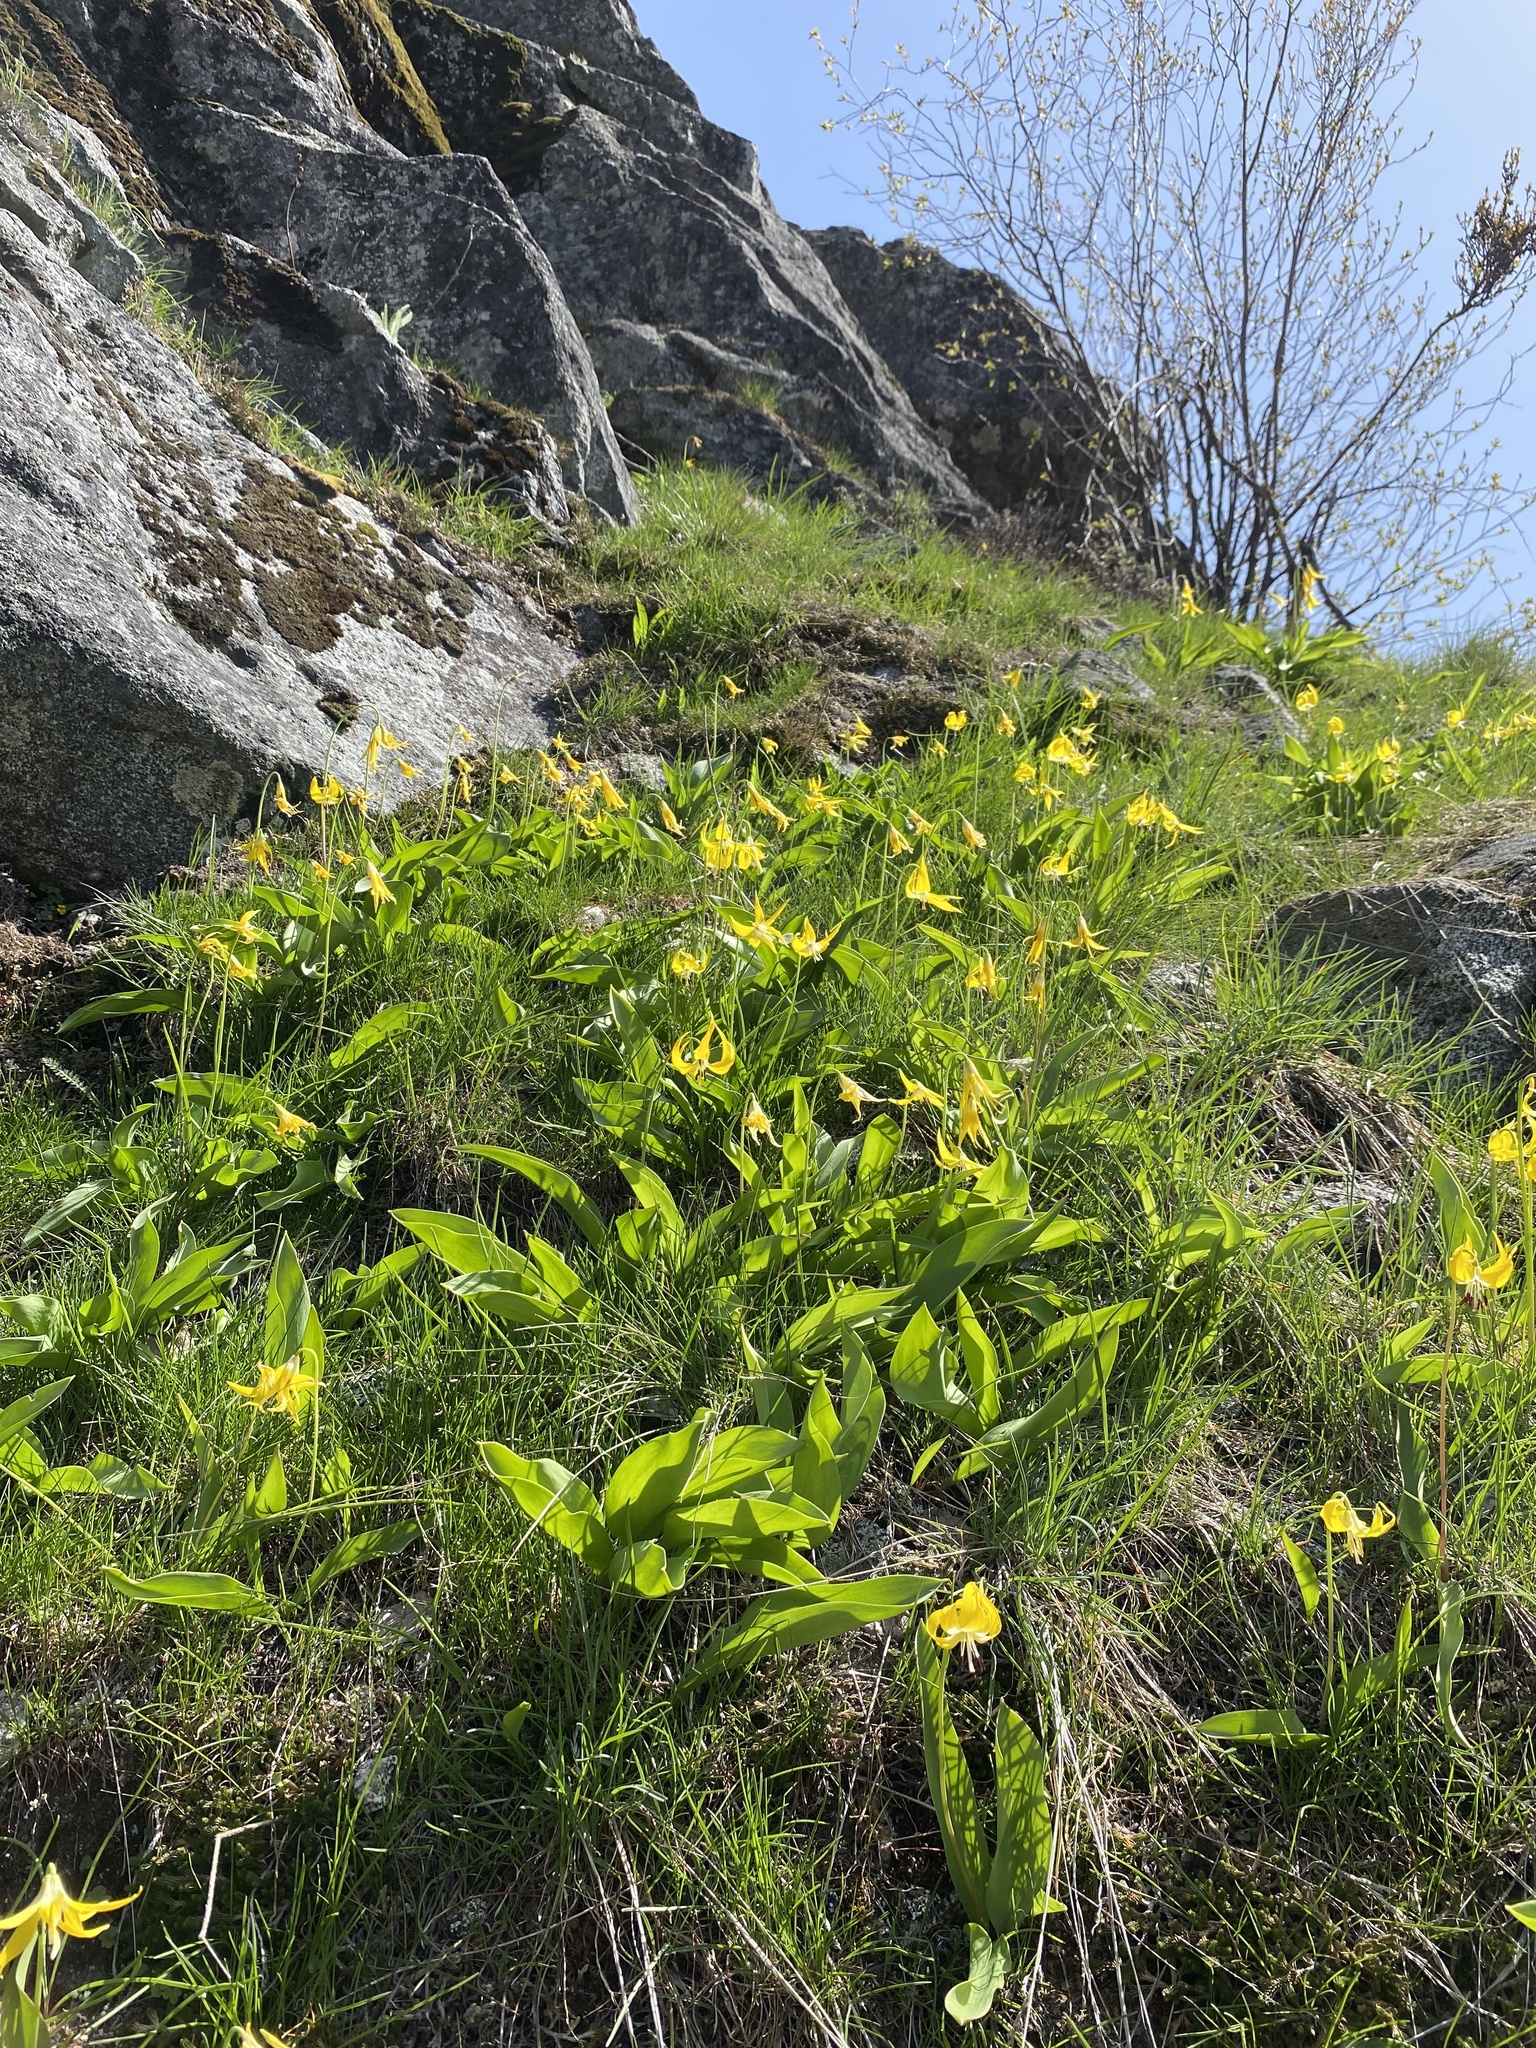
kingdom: Plantae
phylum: Tracheophyta
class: Liliopsida
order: Liliales
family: Liliaceae
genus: Erythronium
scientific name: Erythronium grandiflorum
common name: Avalanche-lily
